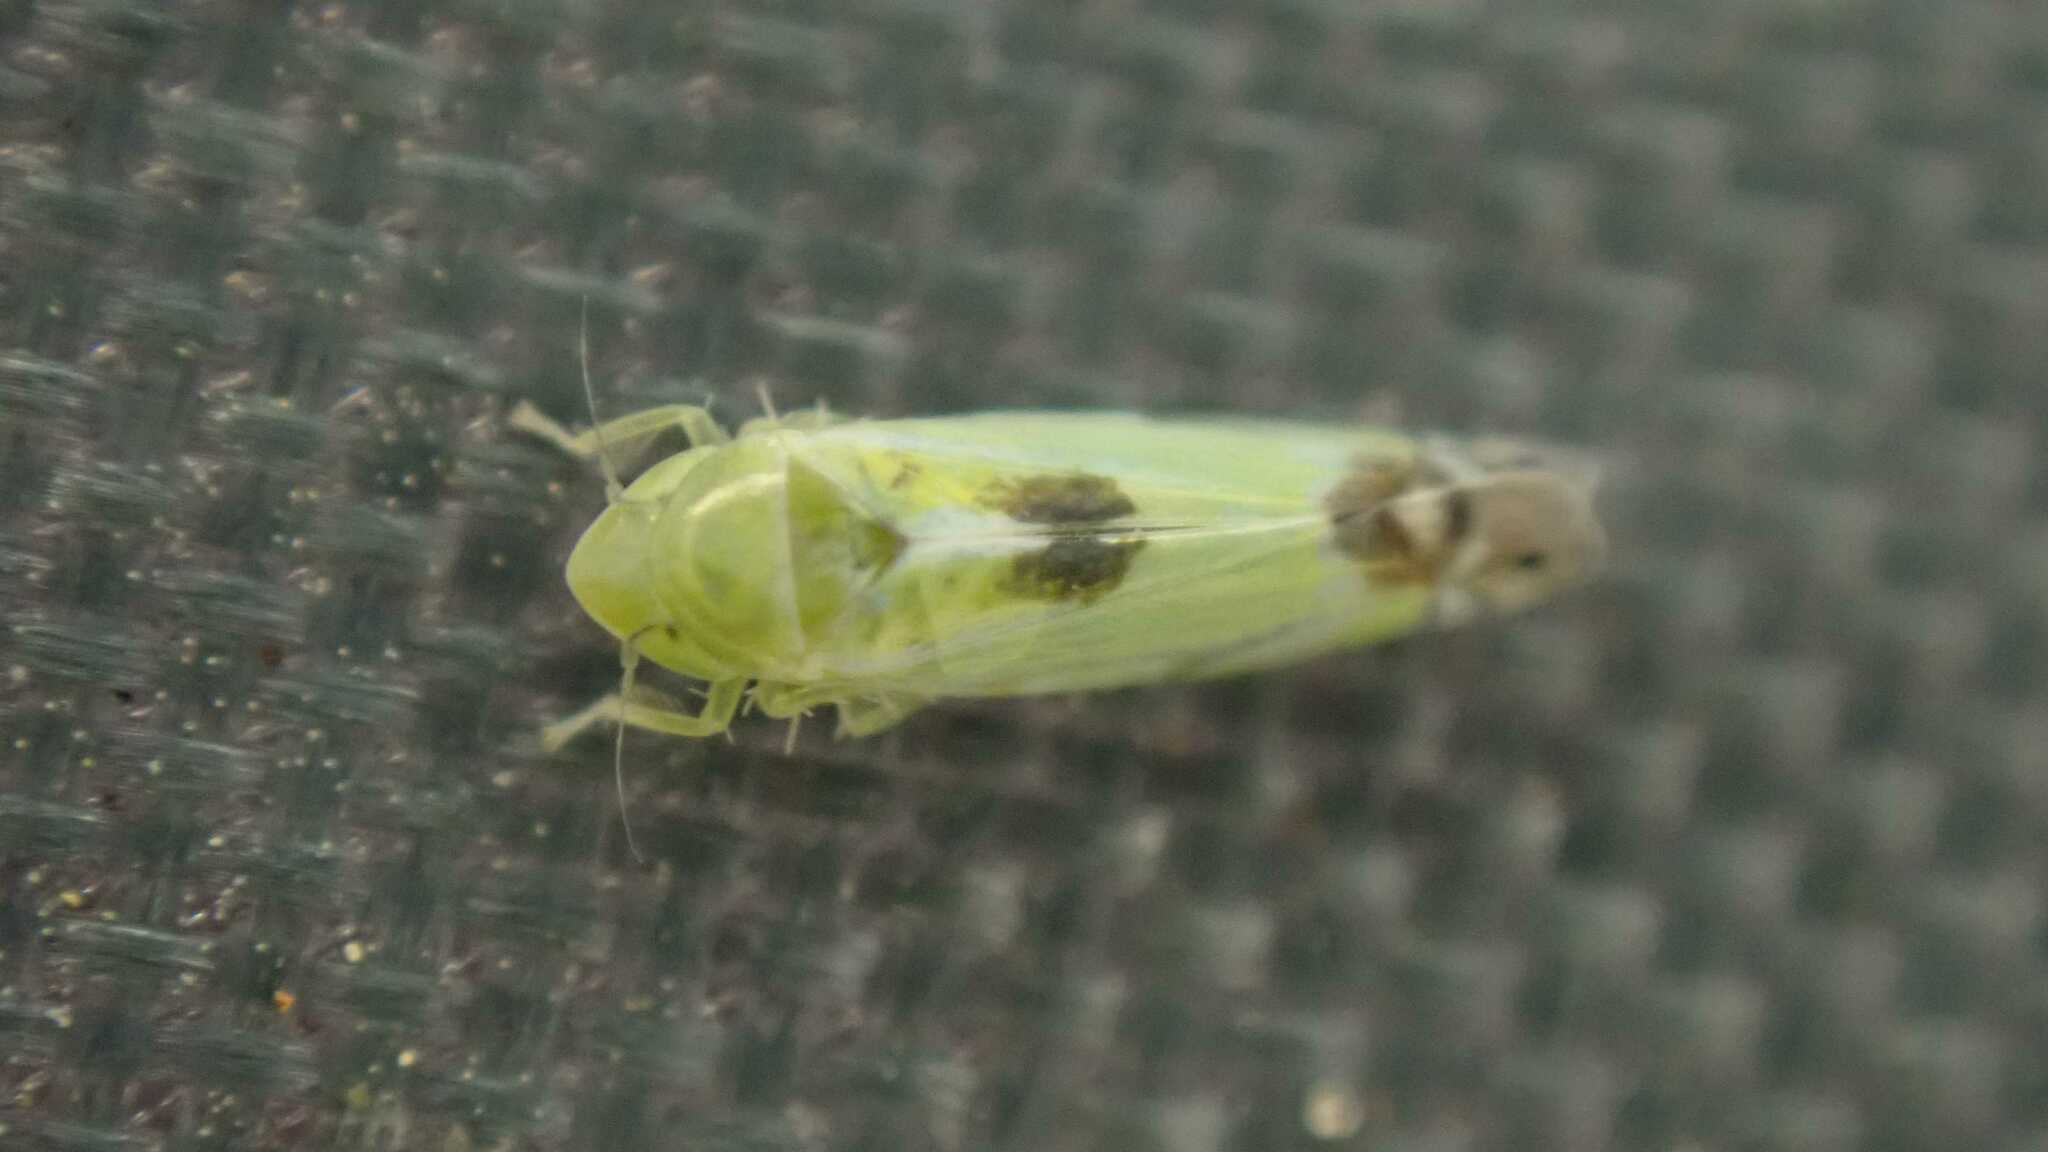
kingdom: Animalia
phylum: Arthropoda
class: Insecta
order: Hemiptera
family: Cicadellidae
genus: Zyginella
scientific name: Zyginella pulchra
